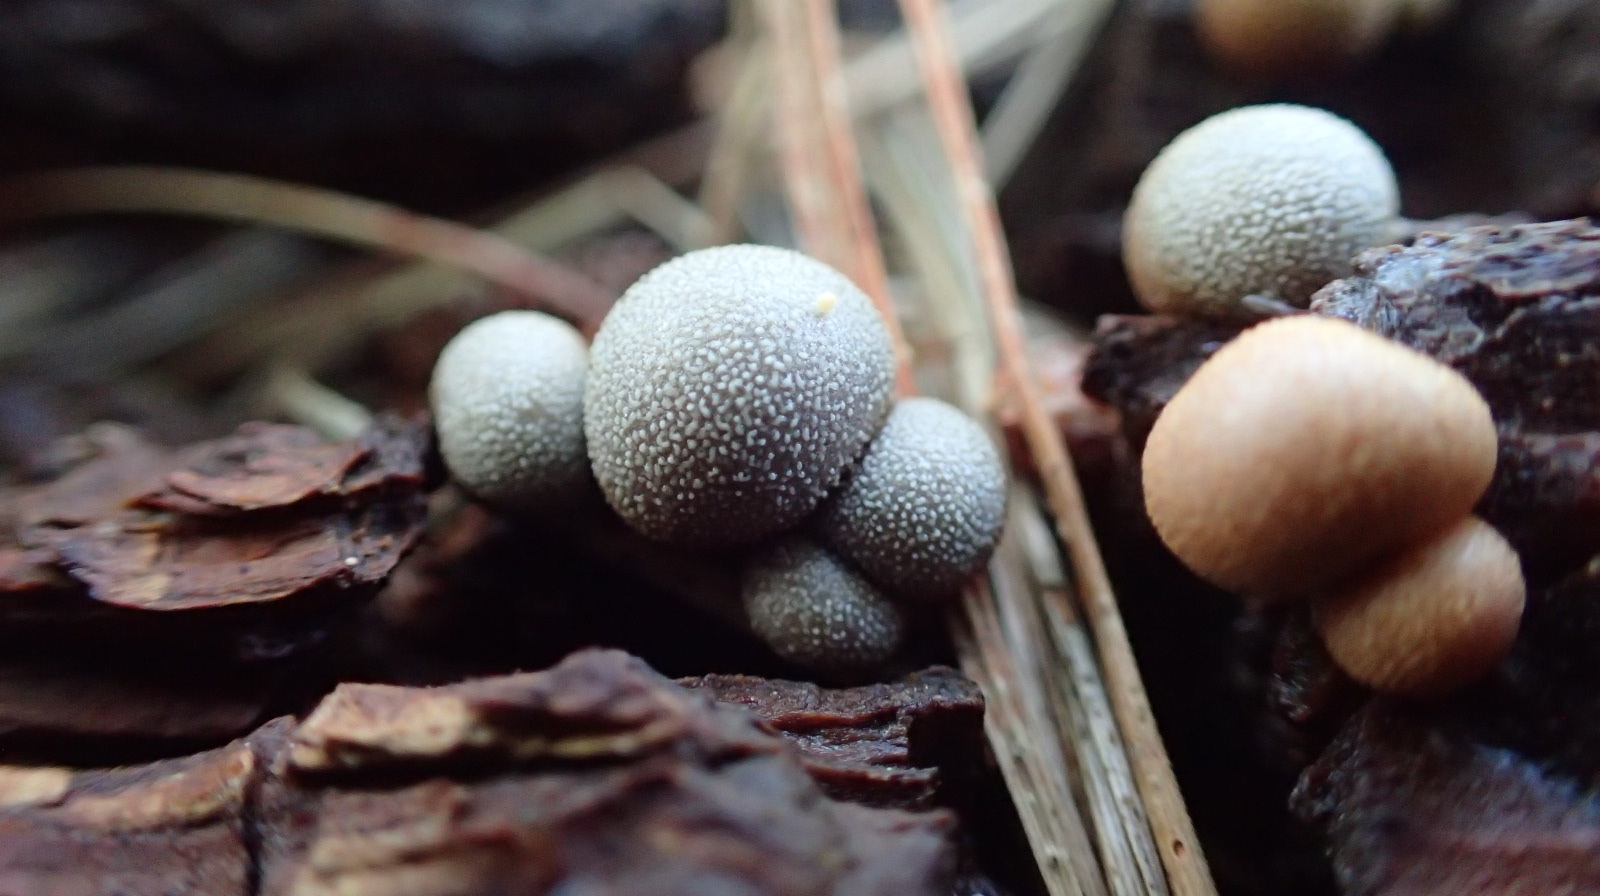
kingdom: Protozoa
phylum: Mycetozoa
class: Myxomycetes
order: Cribrariales
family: Tubiferaceae
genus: Lycogala
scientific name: Lycogala epidendrum
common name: Wolf's milk
